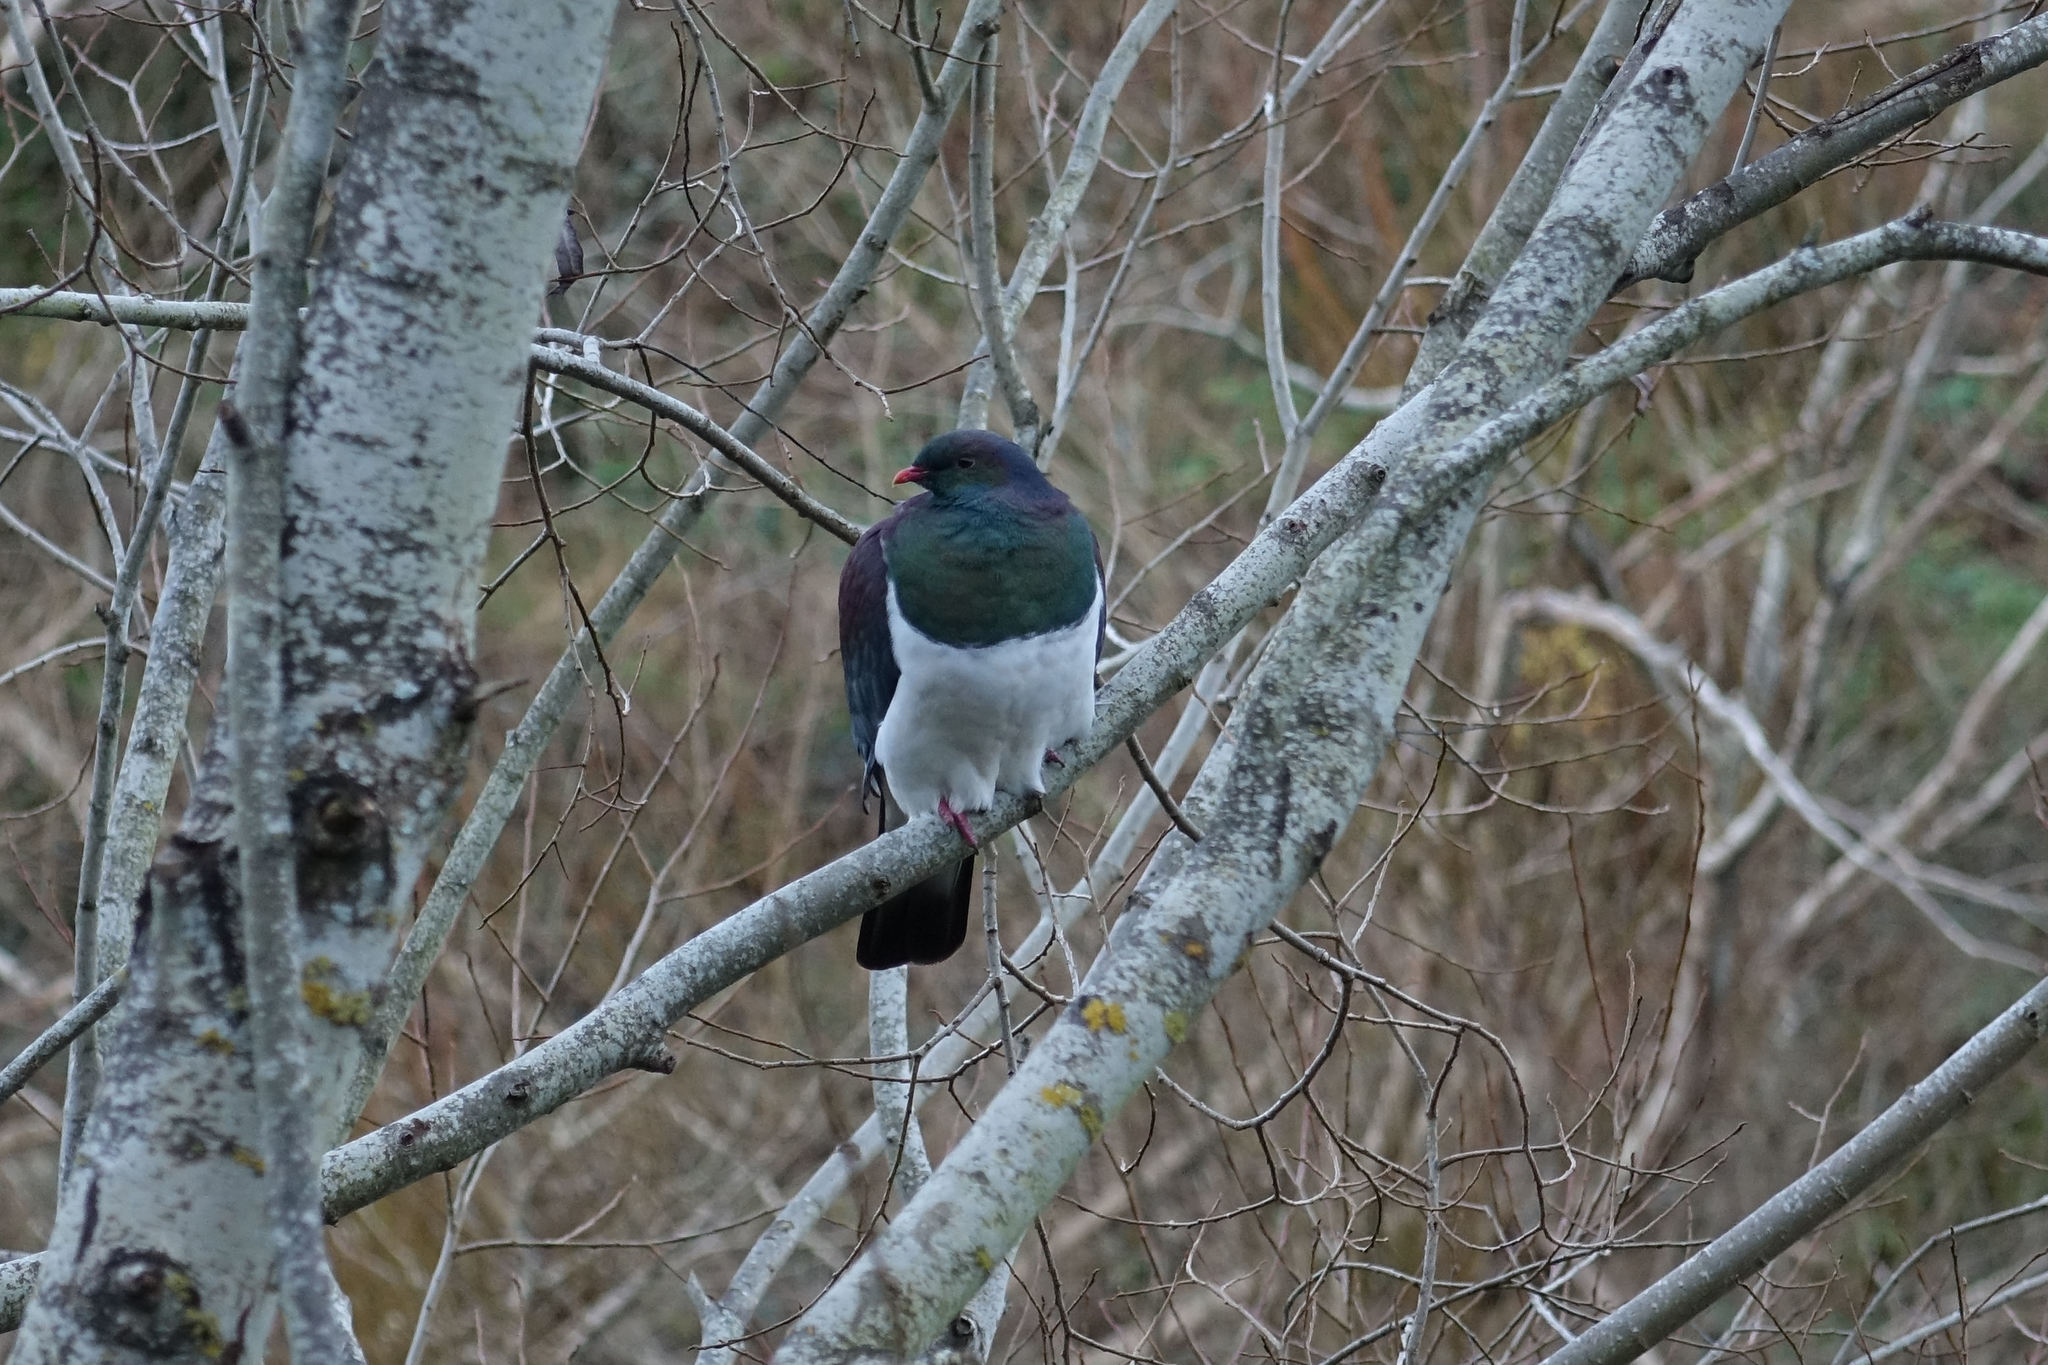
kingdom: Animalia
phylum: Chordata
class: Aves
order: Columbiformes
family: Columbidae
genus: Hemiphaga
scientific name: Hemiphaga novaeseelandiae
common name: New zealand pigeon
